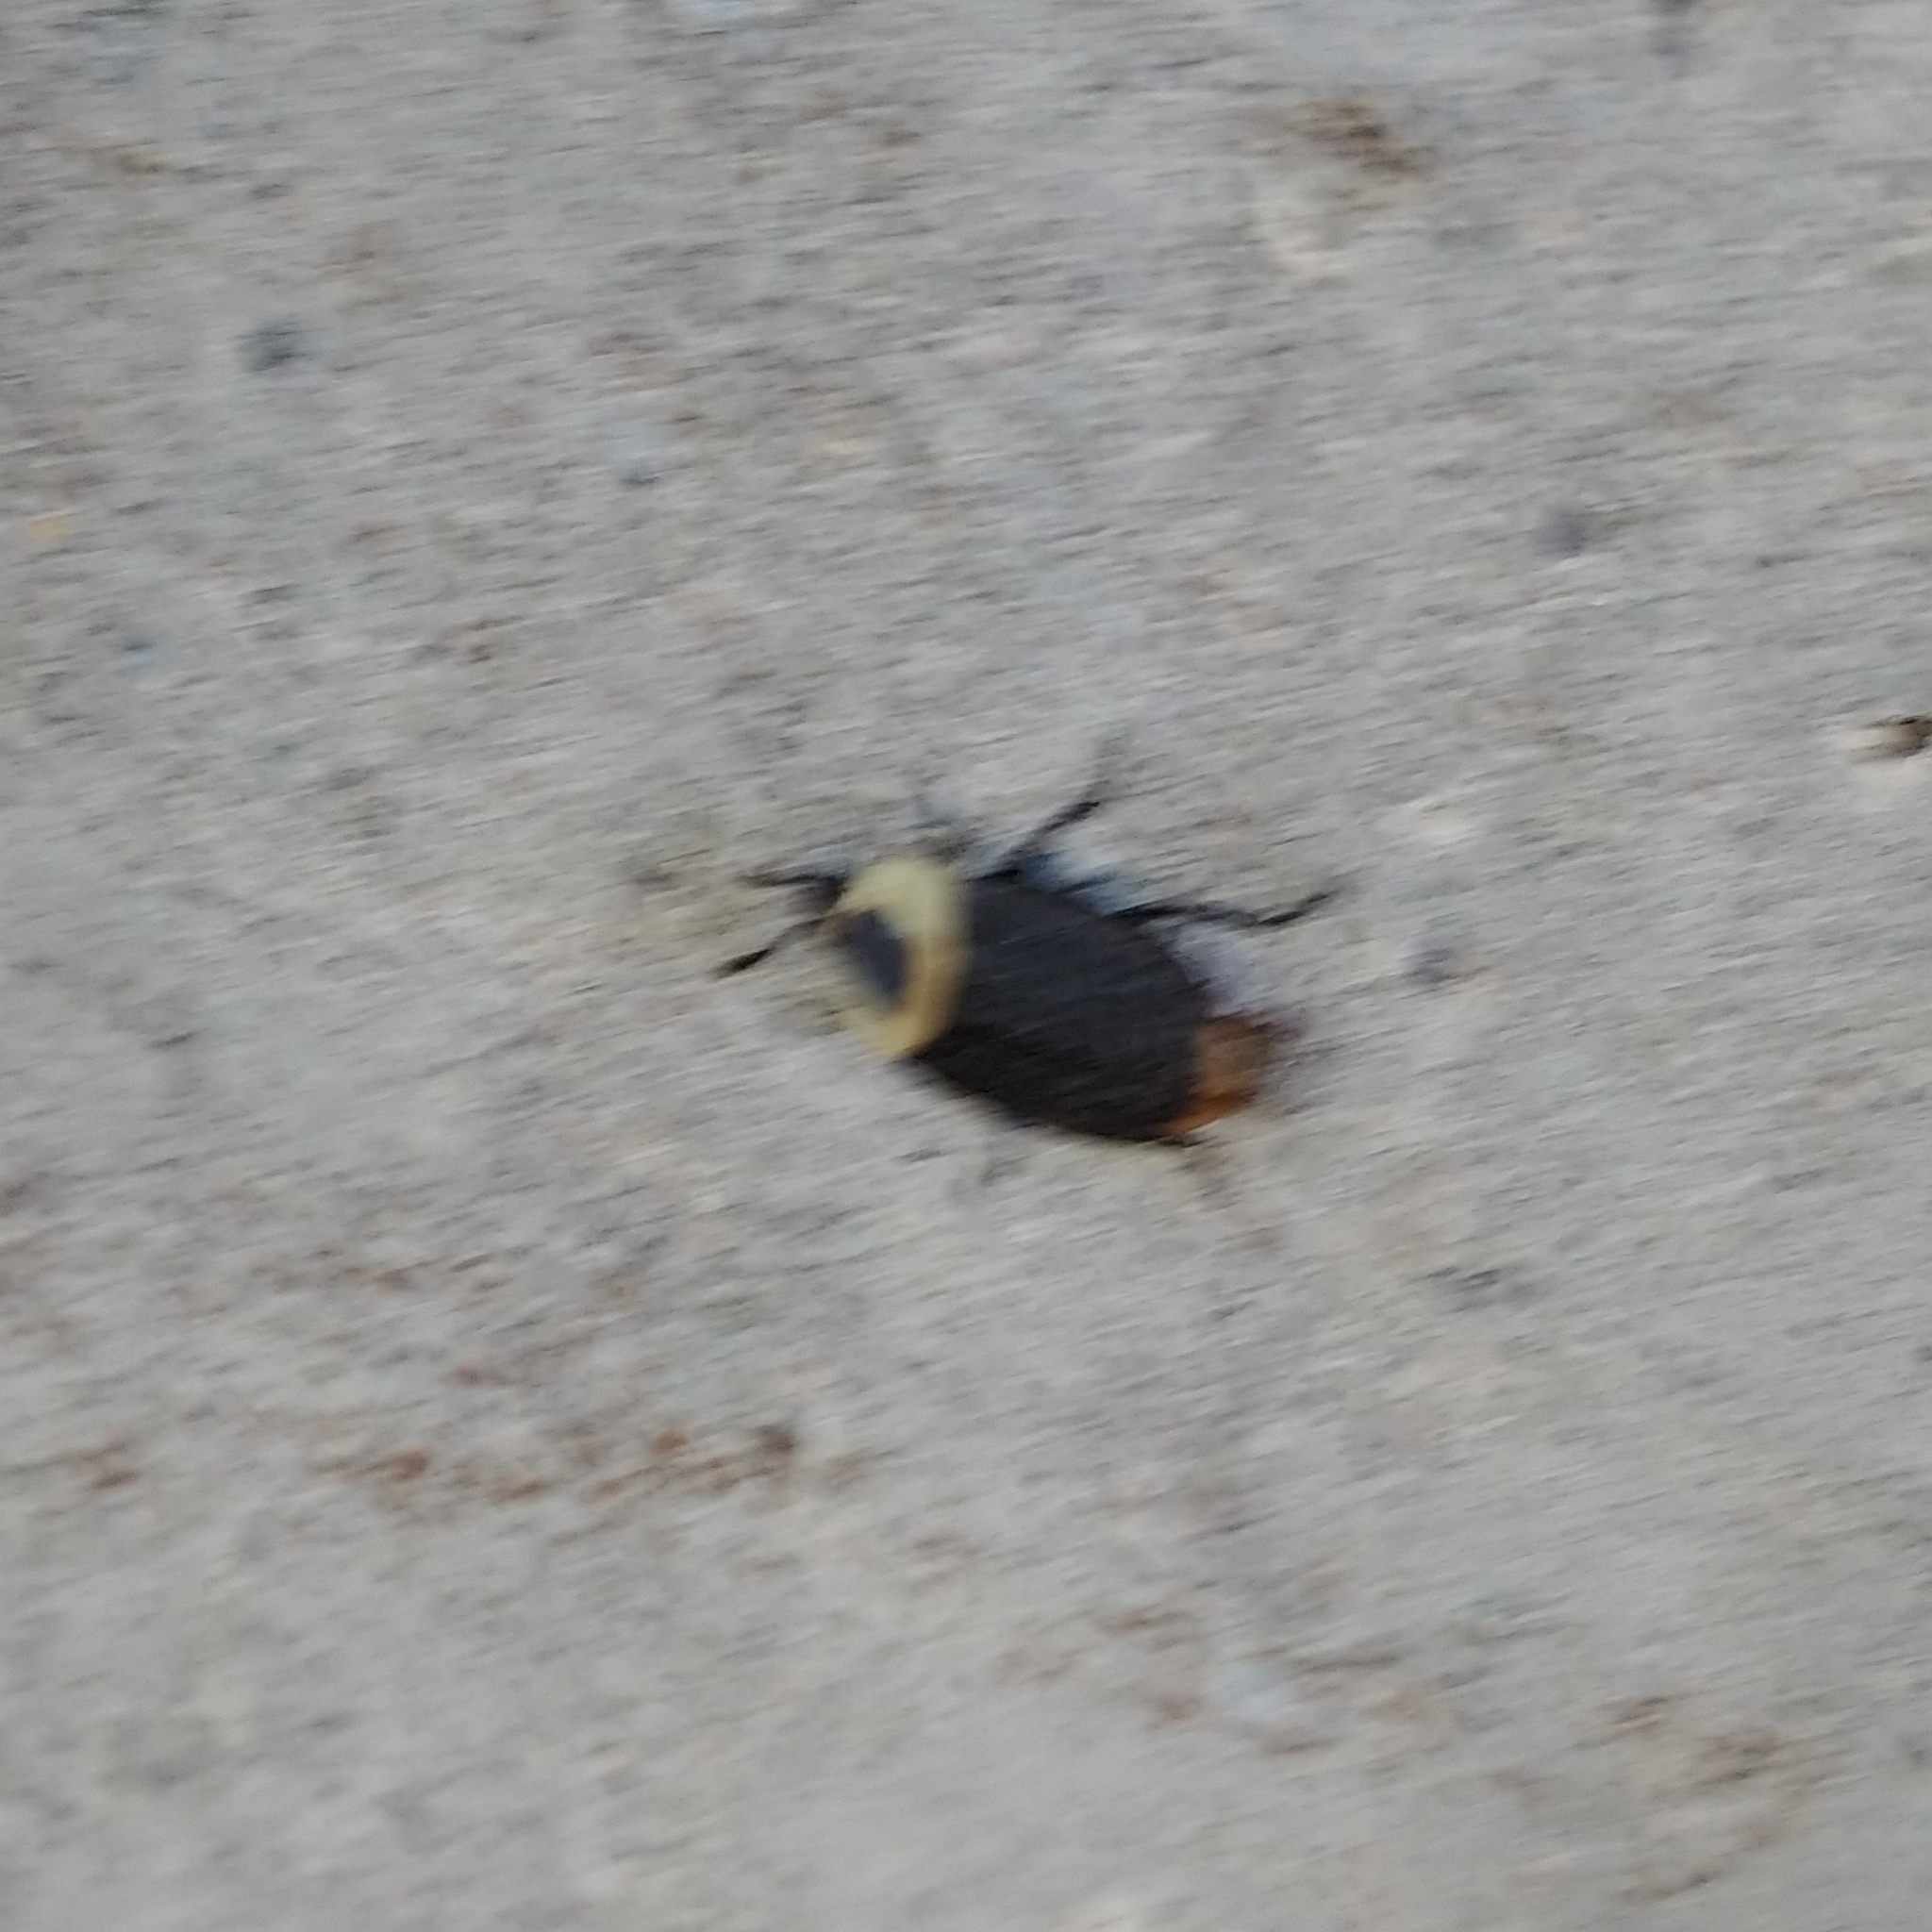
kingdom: Animalia
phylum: Arthropoda
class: Insecta
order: Coleoptera
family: Staphylinidae
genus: Necrophila
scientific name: Necrophila americana
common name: American carrion beetle
